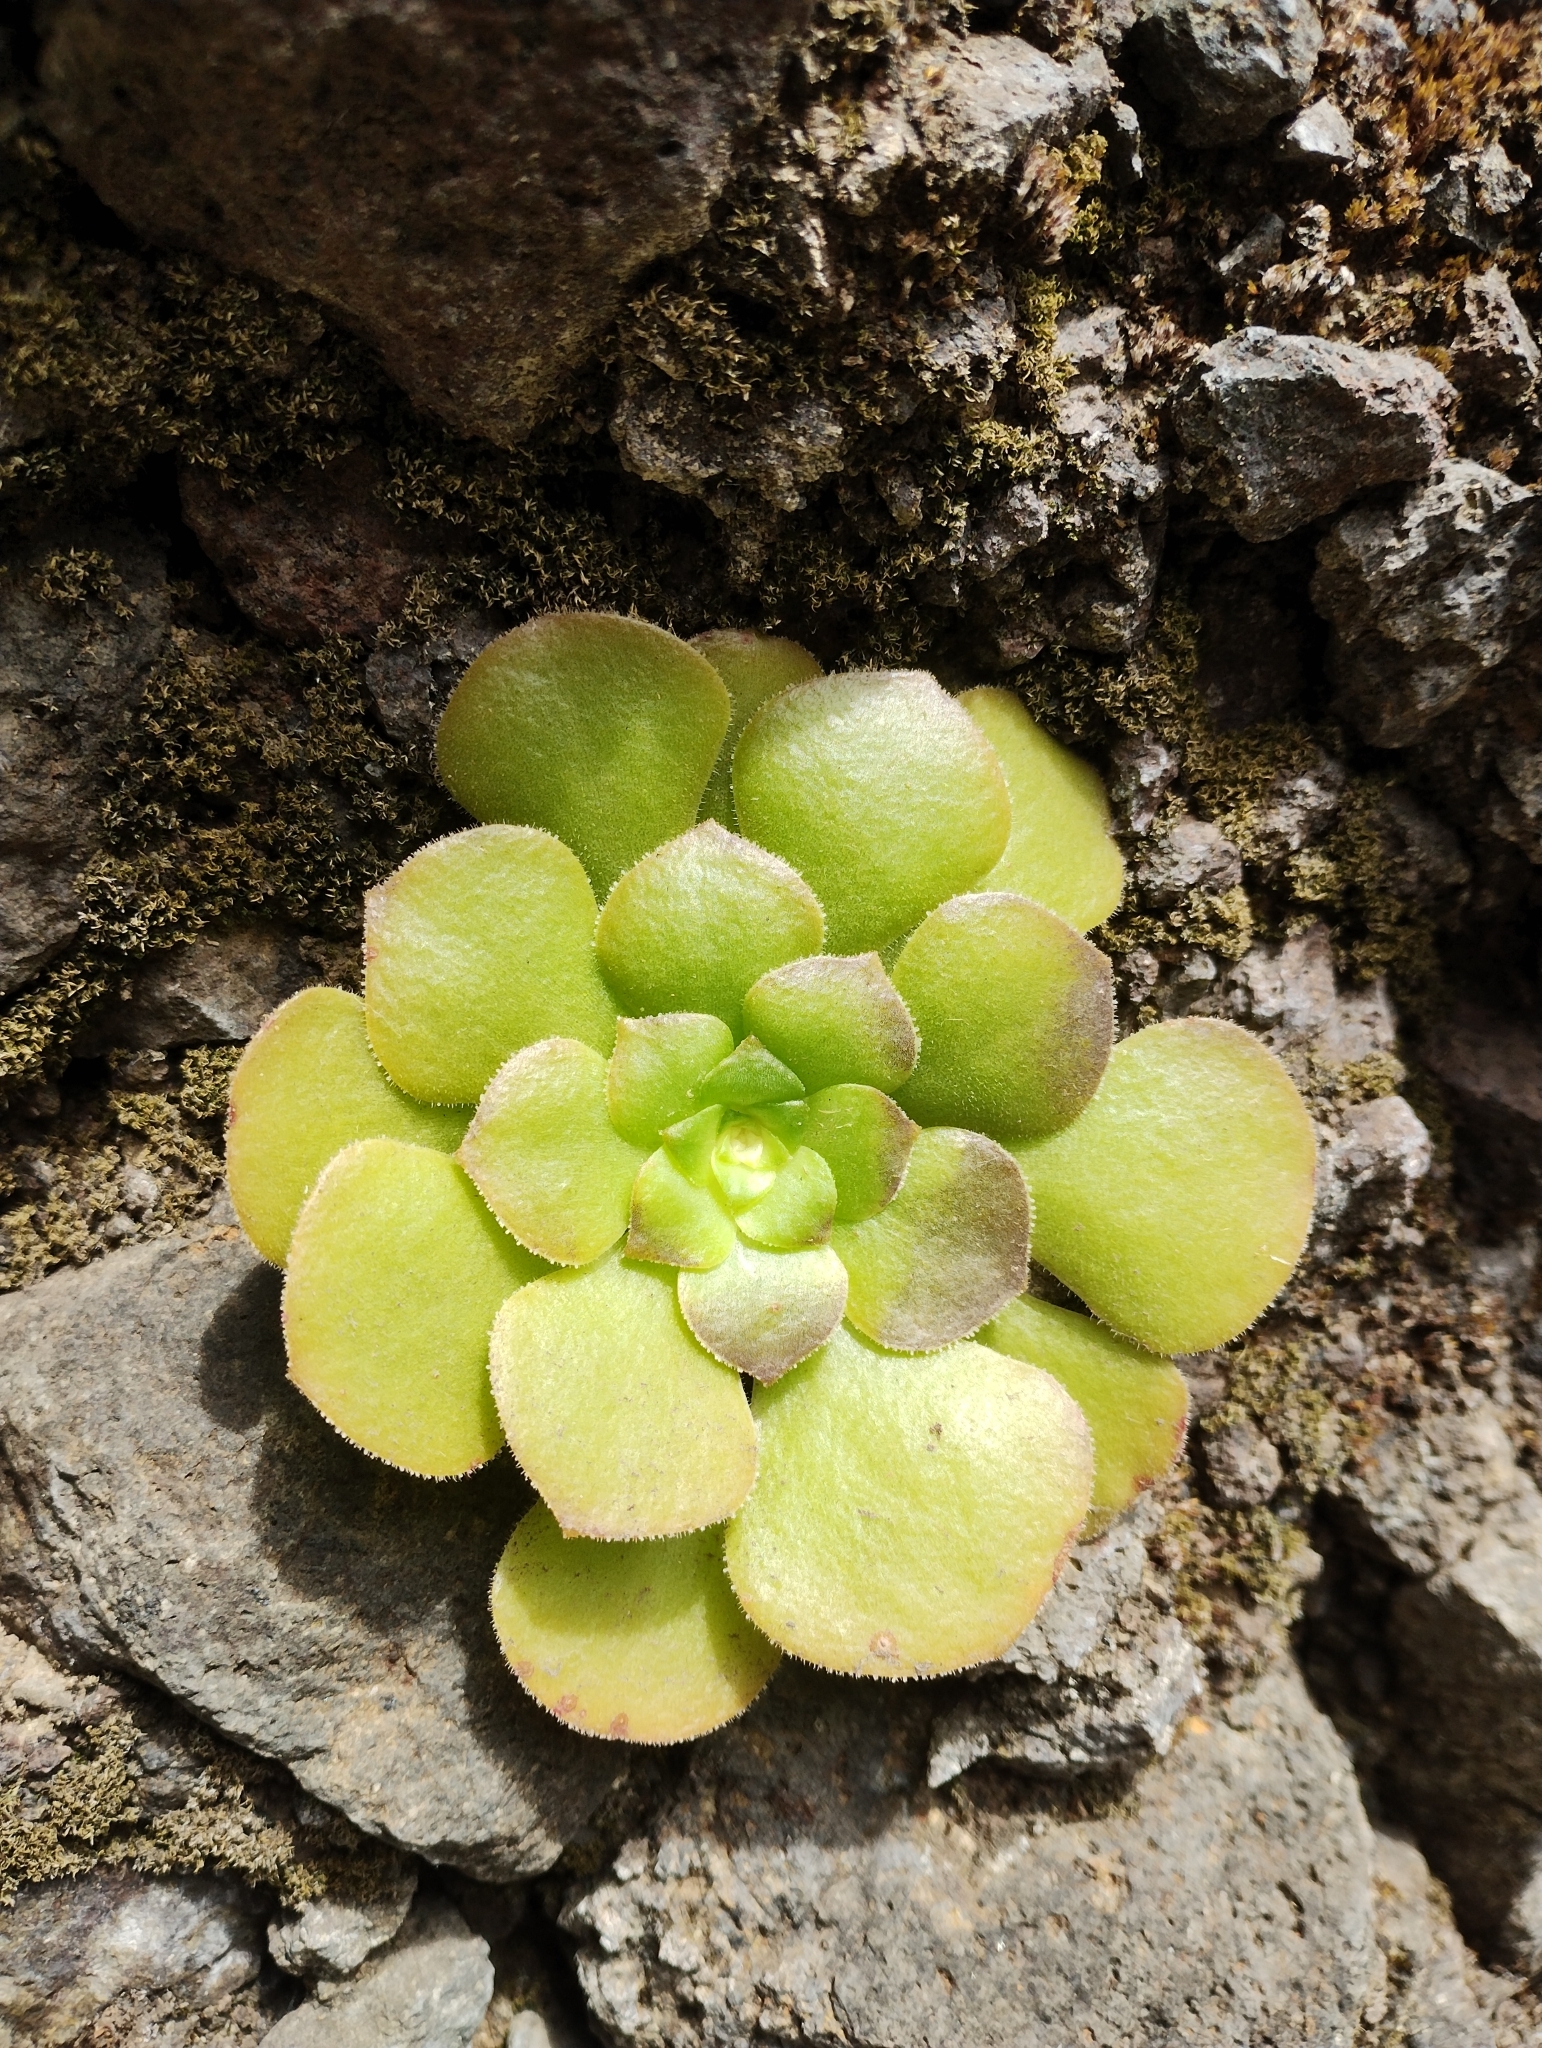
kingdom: Plantae
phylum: Tracheophyta
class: Magnoliopsida
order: Saxifragales
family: Crassulaceae
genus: Aeonium
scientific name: Aeonium glandulosum
